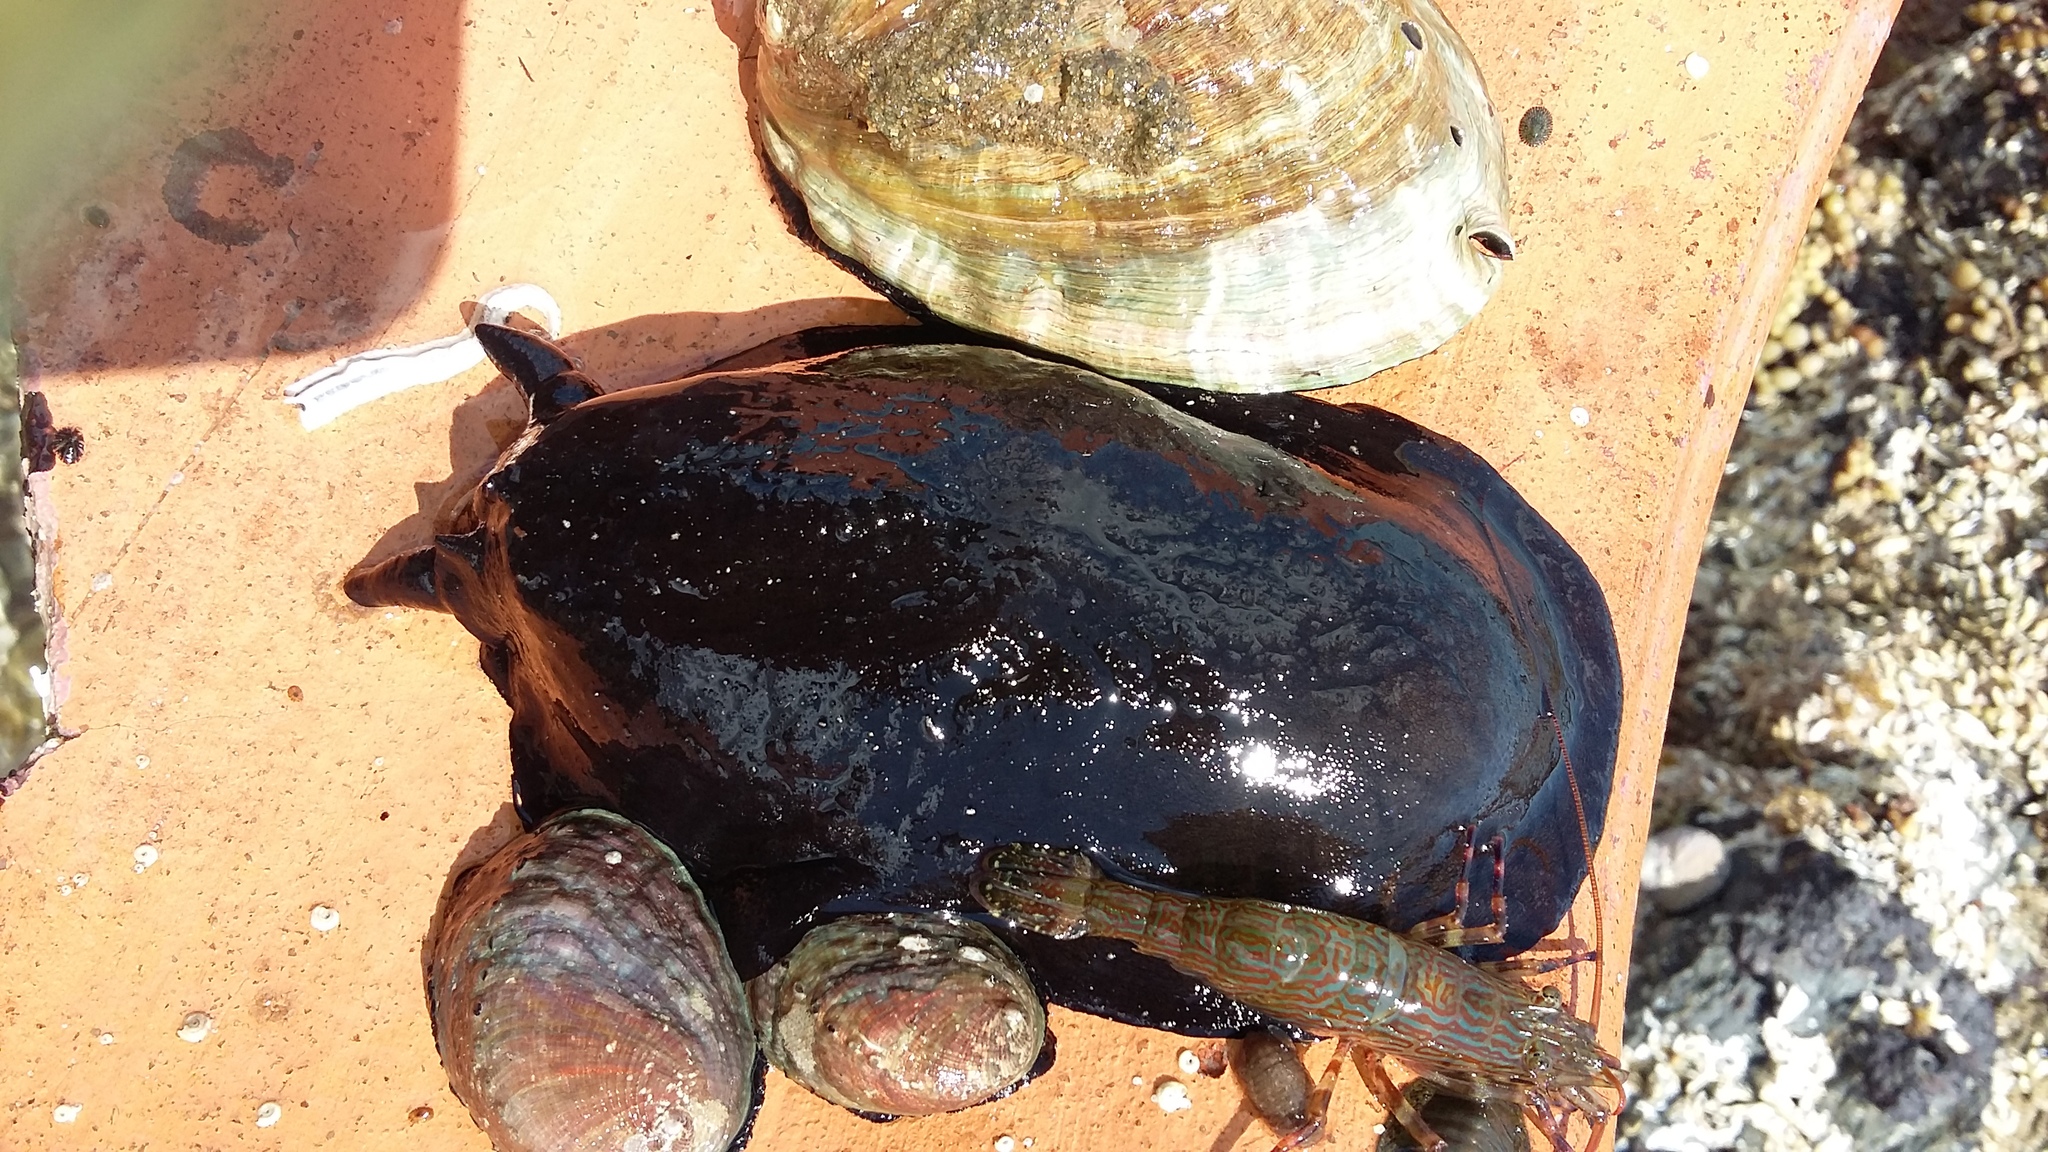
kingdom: Animalia
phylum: Mollusca
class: Gastropoda
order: Lepetellida
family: Fissurellidae
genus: Scutus
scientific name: Scutus breviculus
